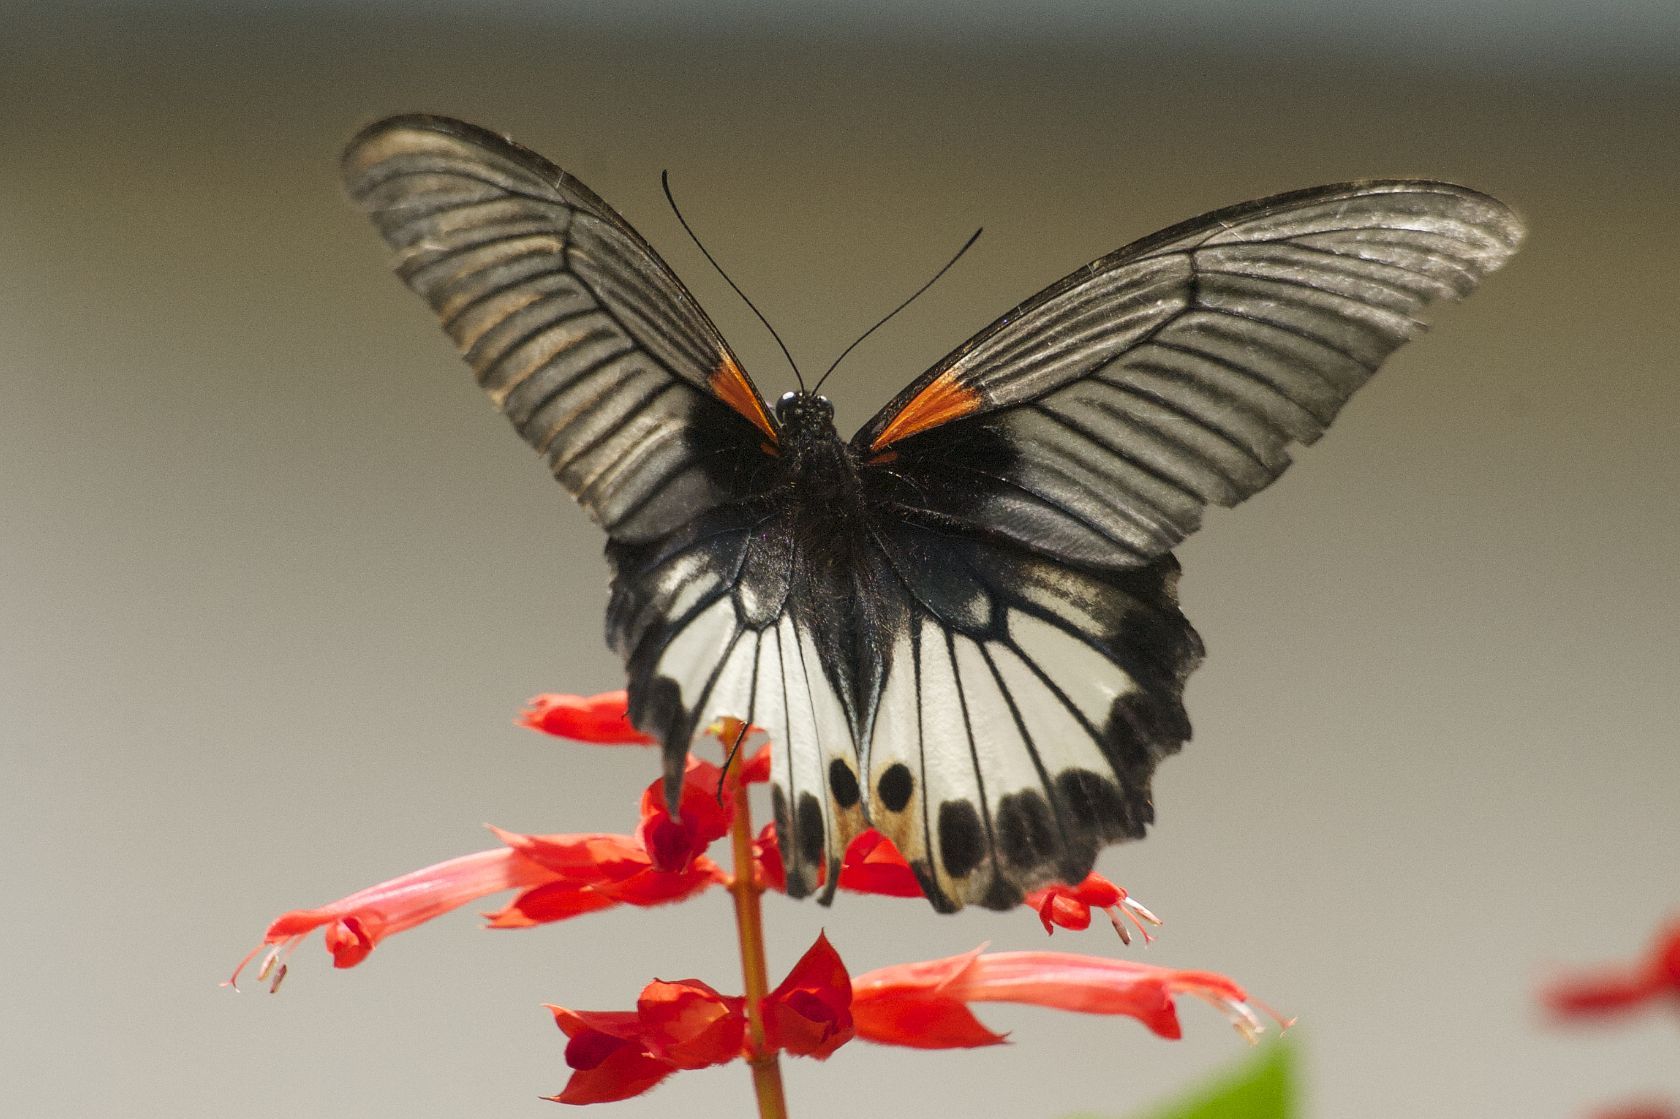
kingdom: Animalia
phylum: Arthropoda
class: Insecta
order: Lepidoptera
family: Papilionidae
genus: Papilio
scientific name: Papilio memnon
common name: Great mormon
